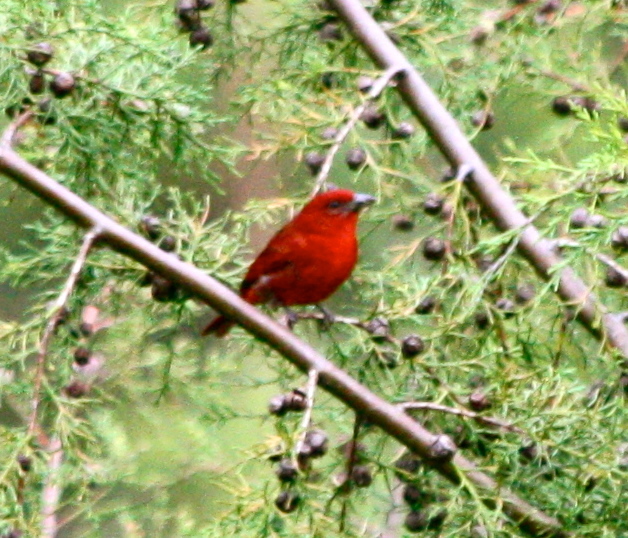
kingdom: Animalia
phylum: Chordata
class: Aves
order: Passeriformes
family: Cardinalidae
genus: Piranga
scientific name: Piranga flava
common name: Red tanager
